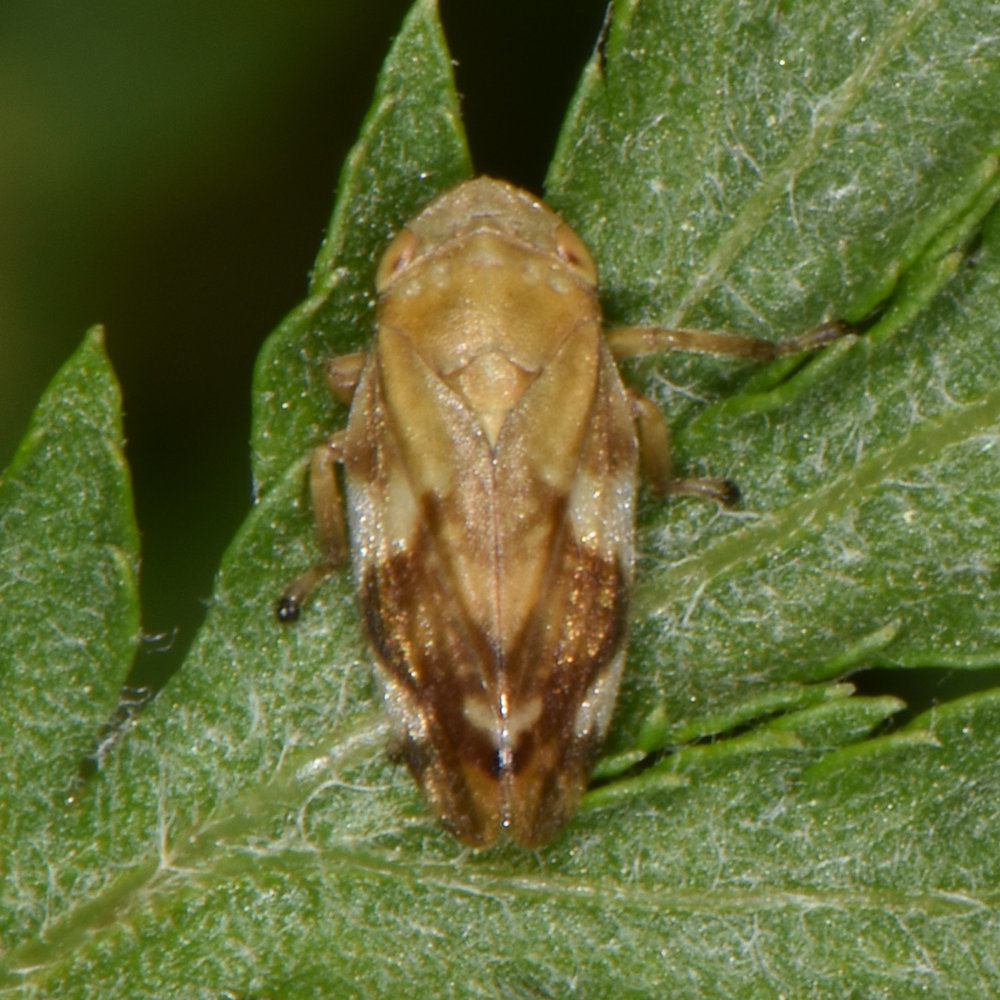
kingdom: Animalia
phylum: Arthropoda
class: Insecta
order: Hemiptera
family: Aphrophoridae
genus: Philaenus
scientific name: Philaenus spumarius
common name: Meadow spittlebug
